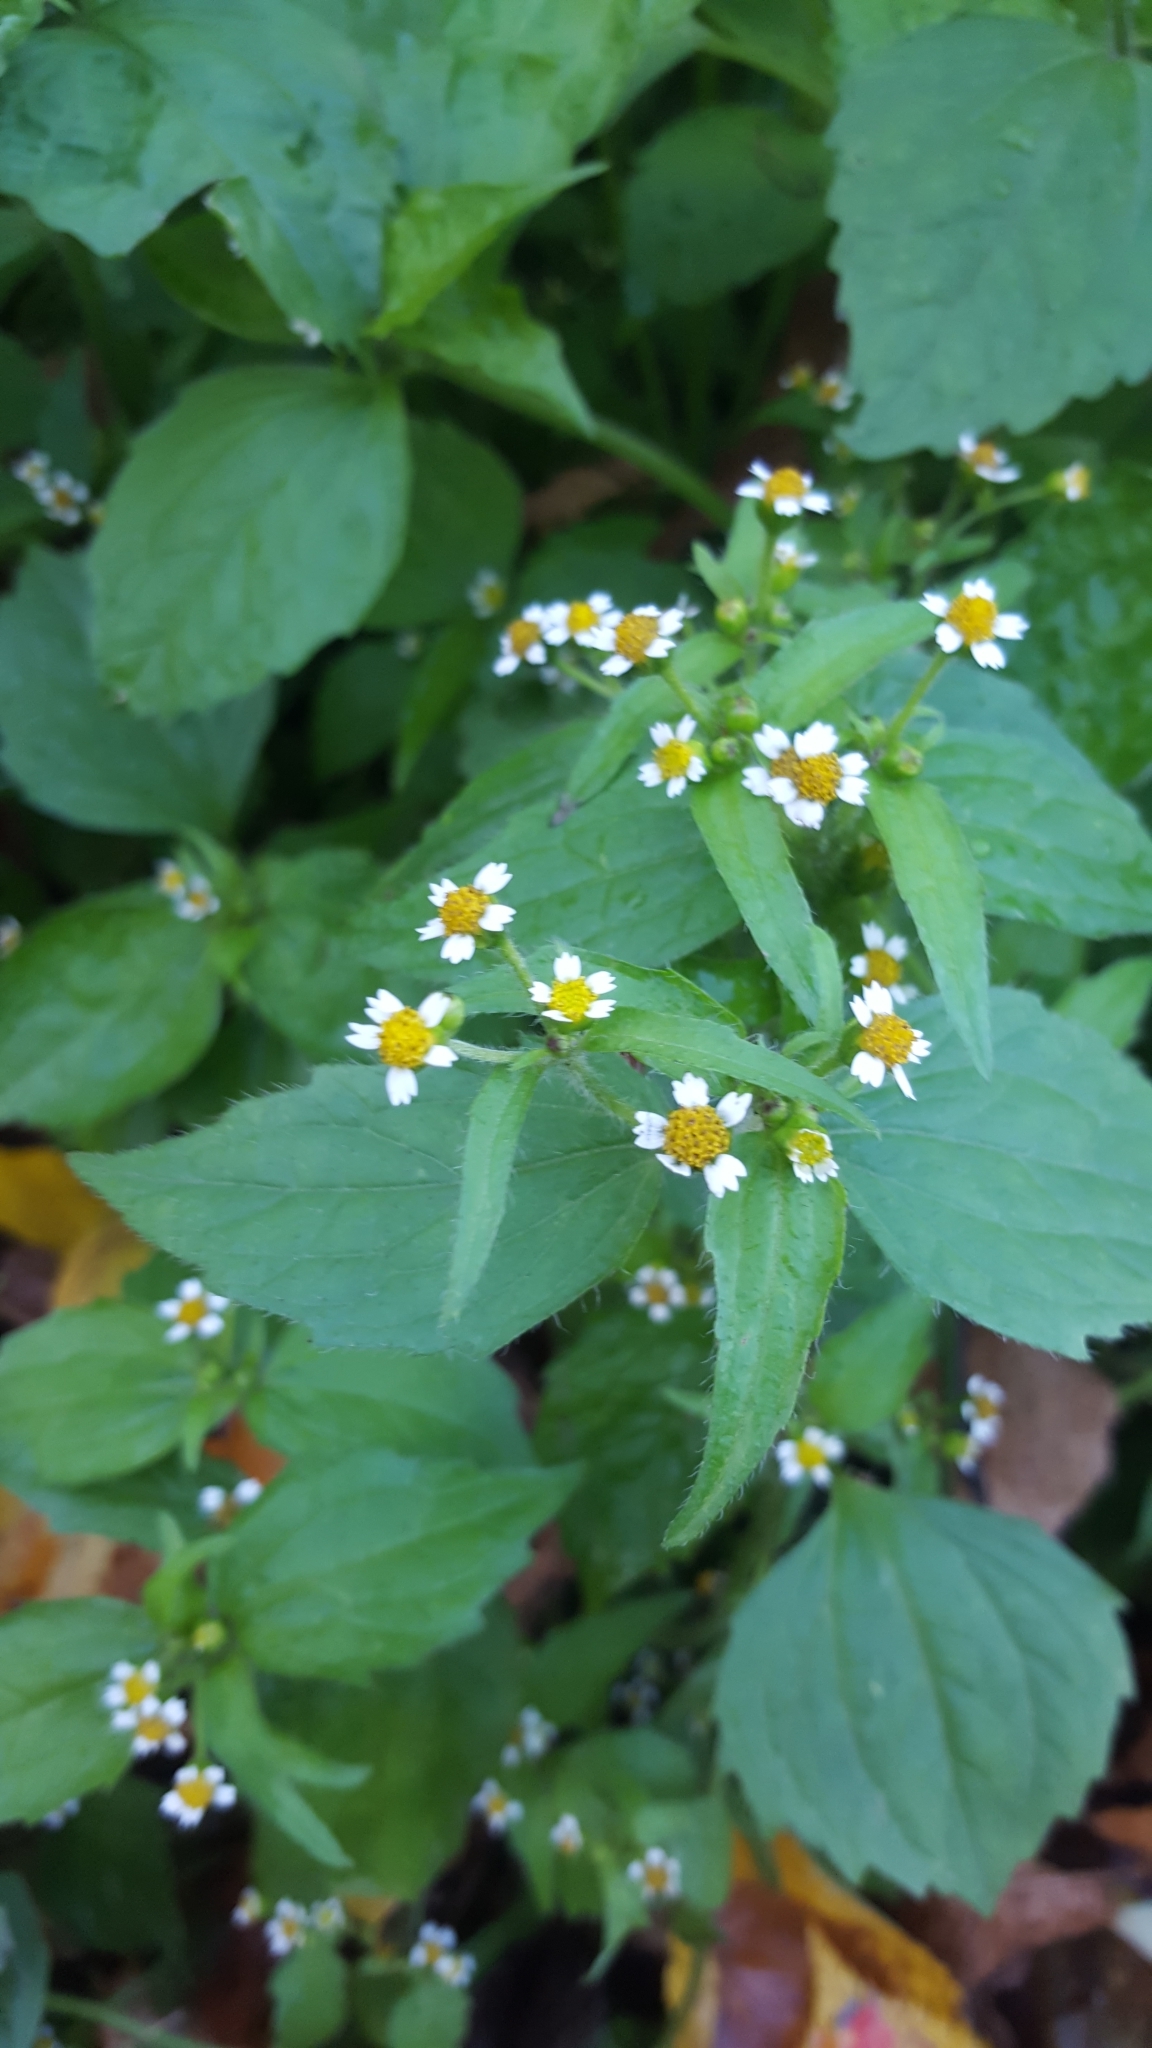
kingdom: Plantae
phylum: Tracheophyta
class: Magnoliopsida
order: Asterales
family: Asteraceae
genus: Galinsoga
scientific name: Galinsoga quadriradiata
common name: Shaggy soldier
